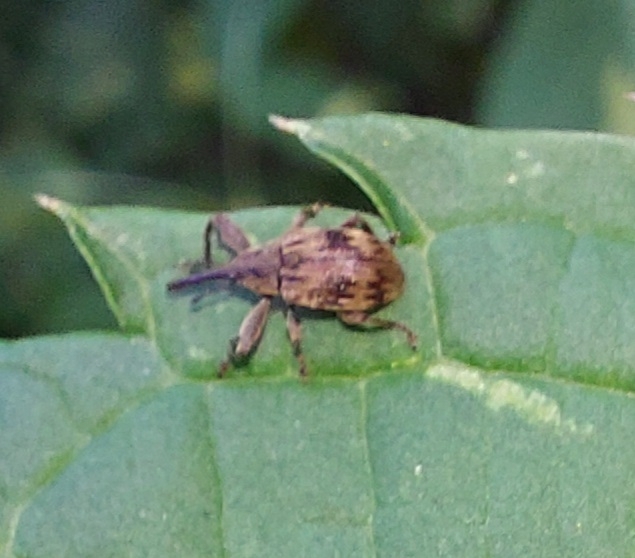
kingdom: Animalia
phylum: Arthropoda
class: Insecta
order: Coleoptera
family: Curculionidae
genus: Anthonomus
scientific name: Anthonomus rectirostris
